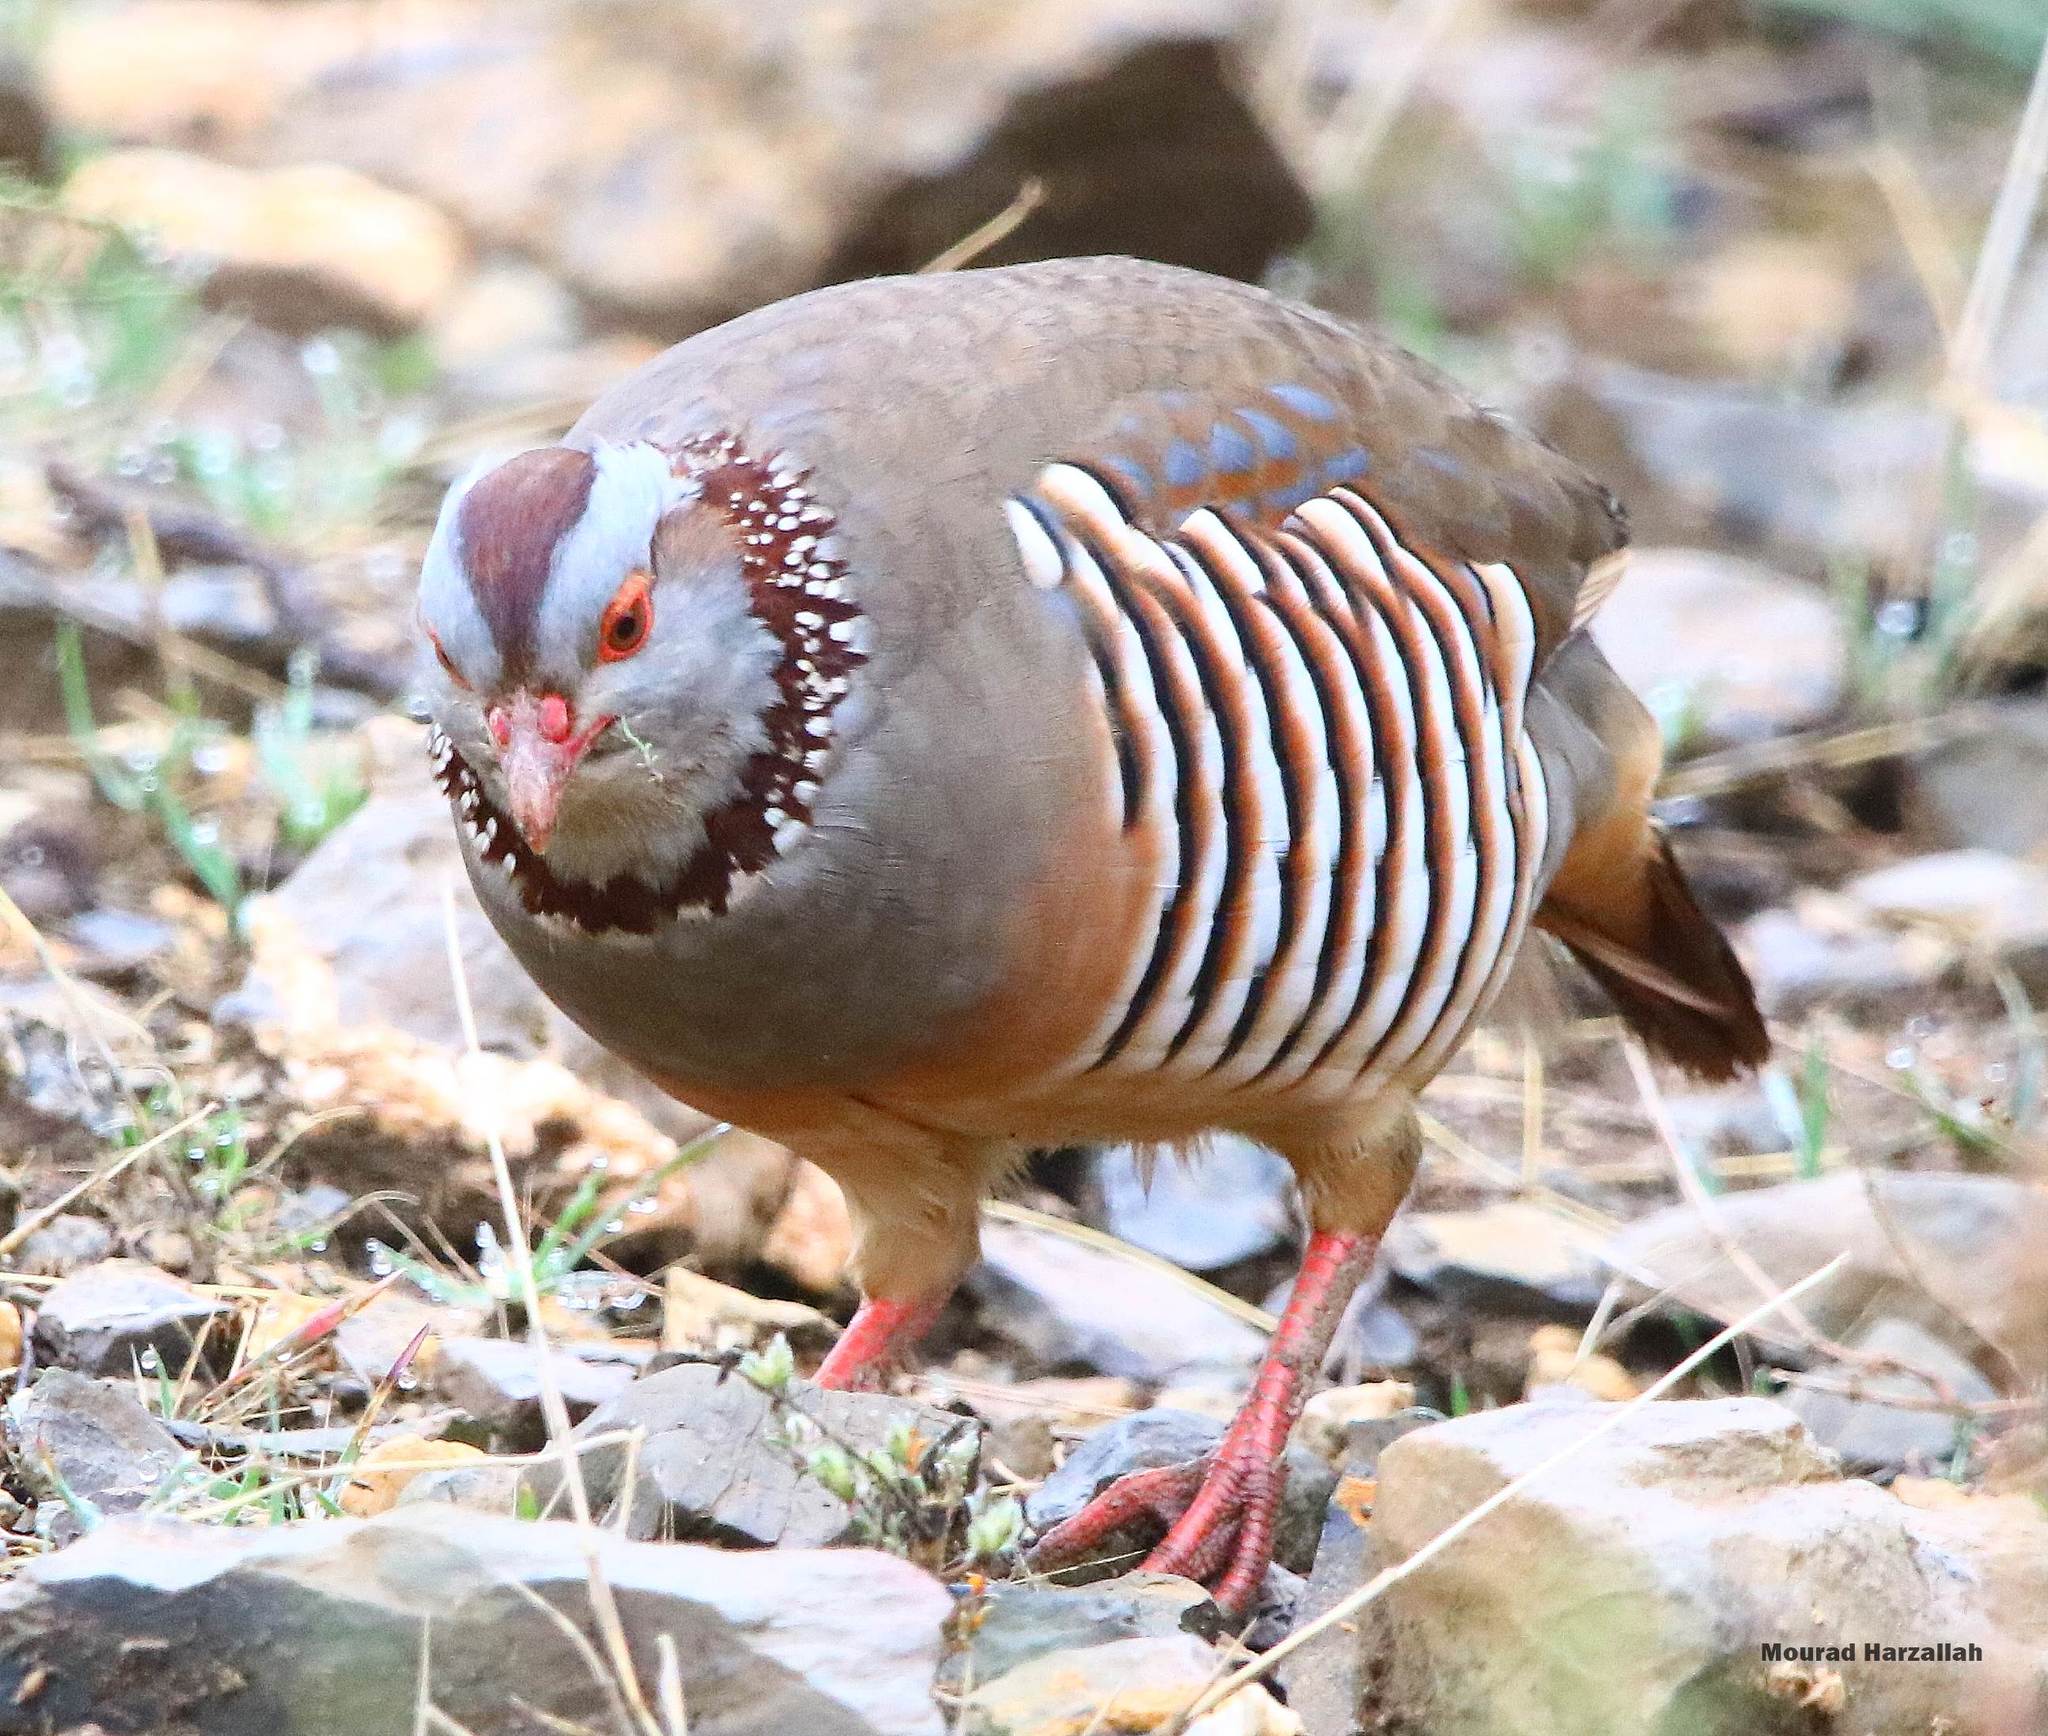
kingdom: Animalia
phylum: Chordata
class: Aves
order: Galliformes
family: Phasianidae
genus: Alectoris
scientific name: Alectoris barbara
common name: Barbary partridge
